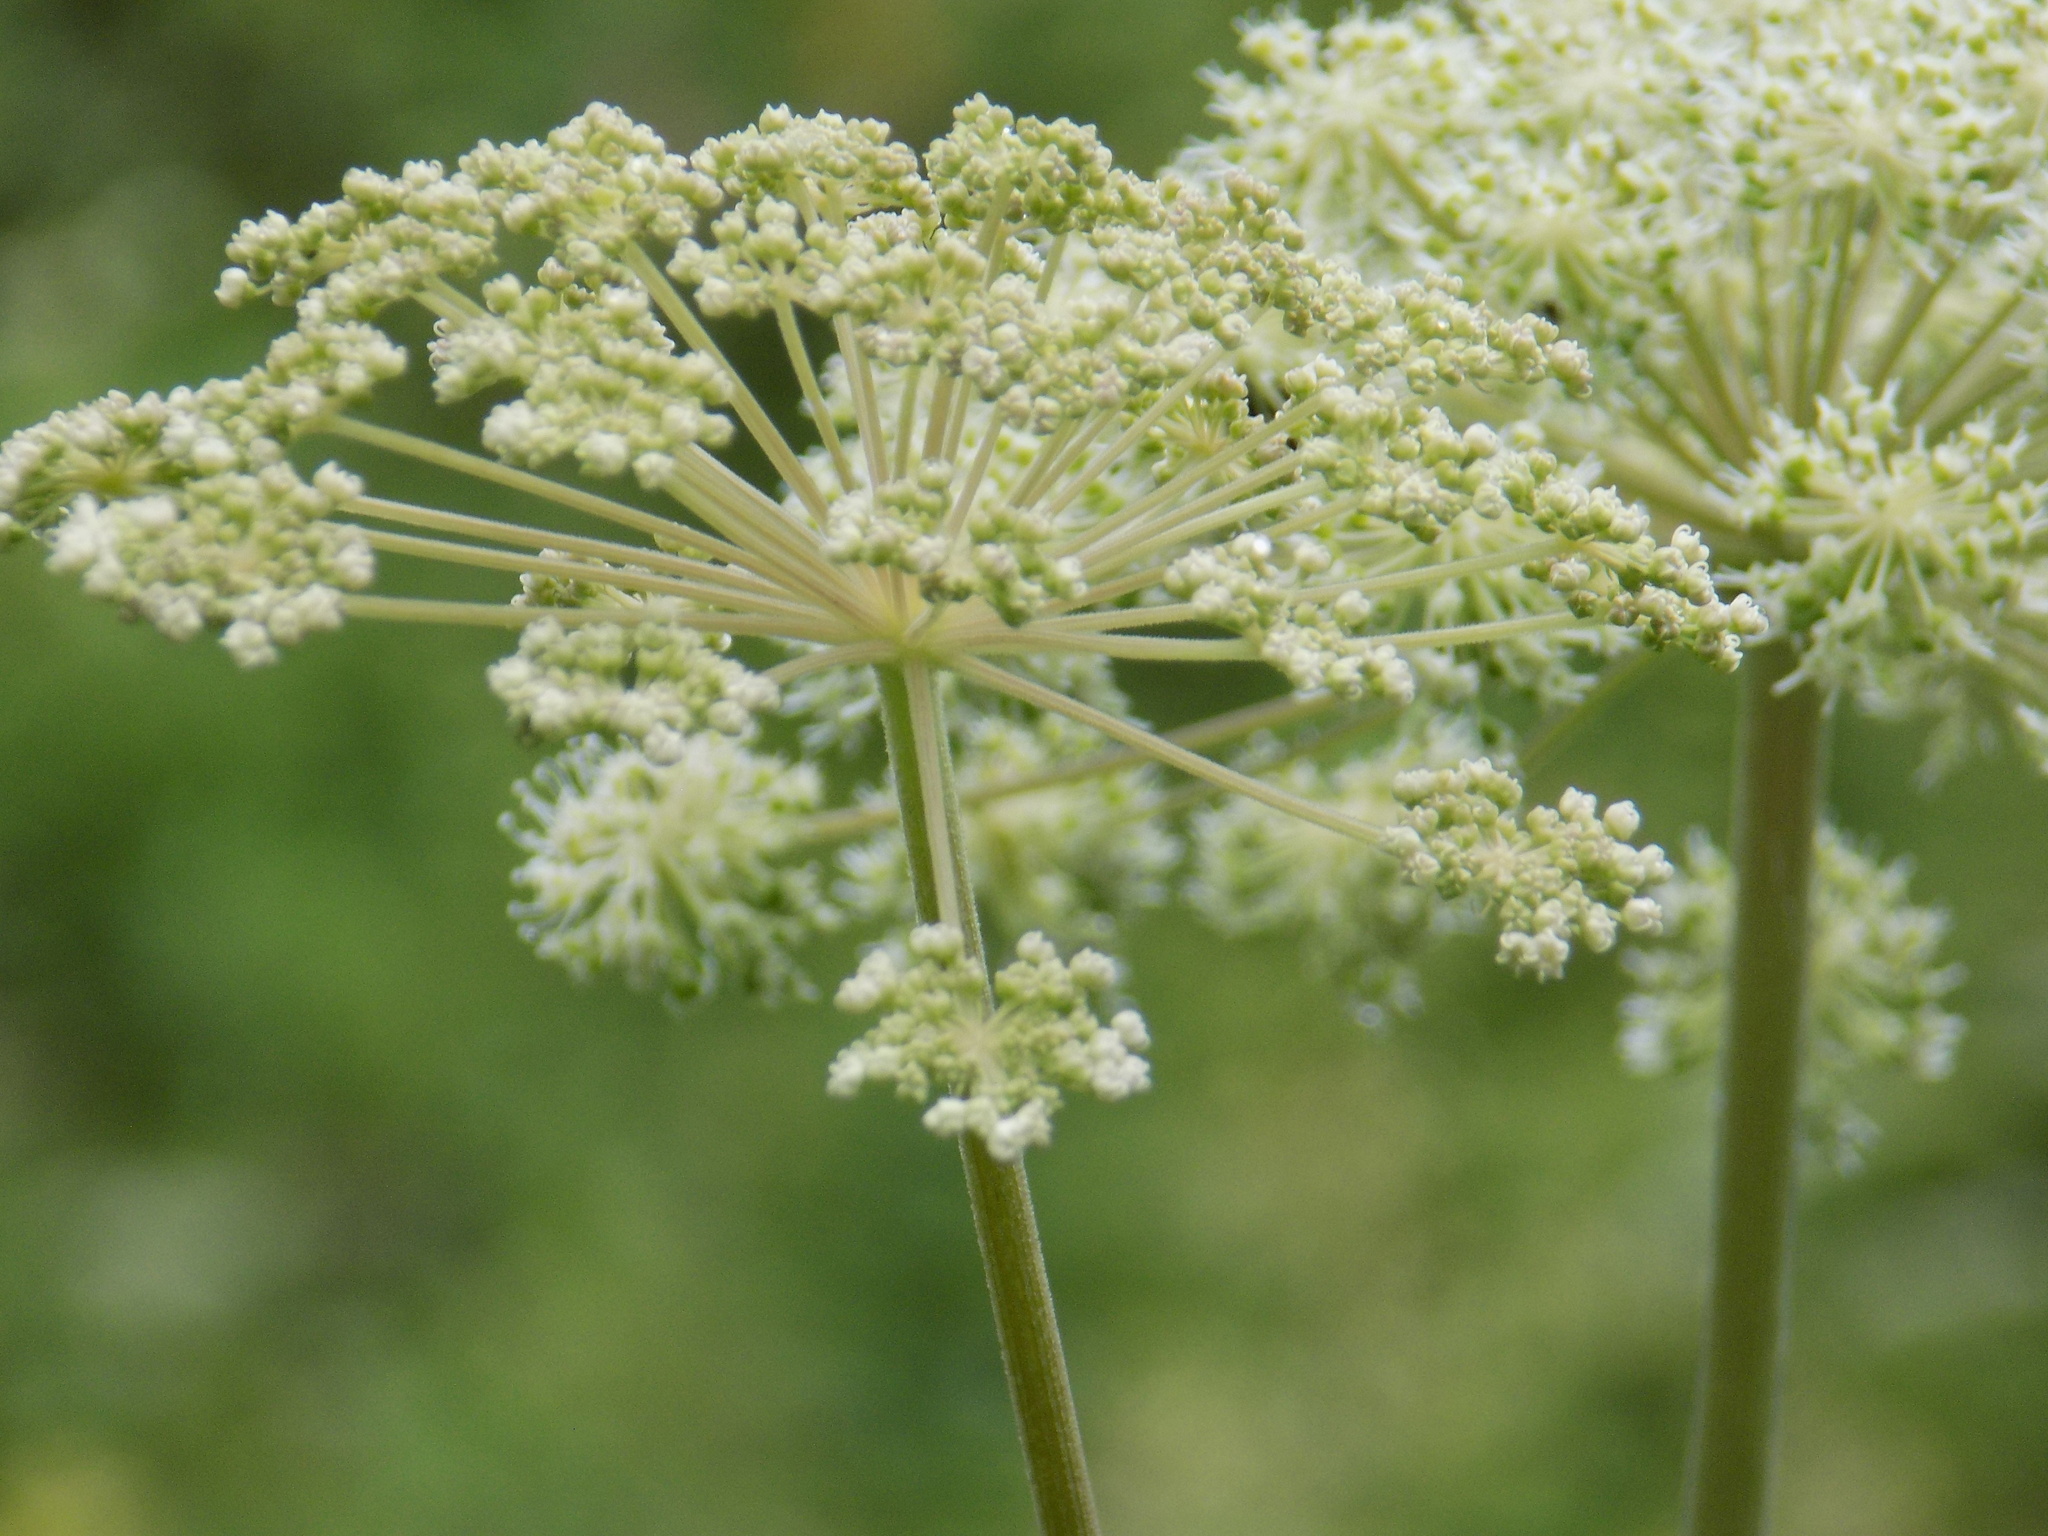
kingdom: Plantae
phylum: Tracheophyta
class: Magnoliopsida
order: Apiales
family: Apiaceae
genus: Angelica
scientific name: Angelica sylvestris
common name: Wild angelica
